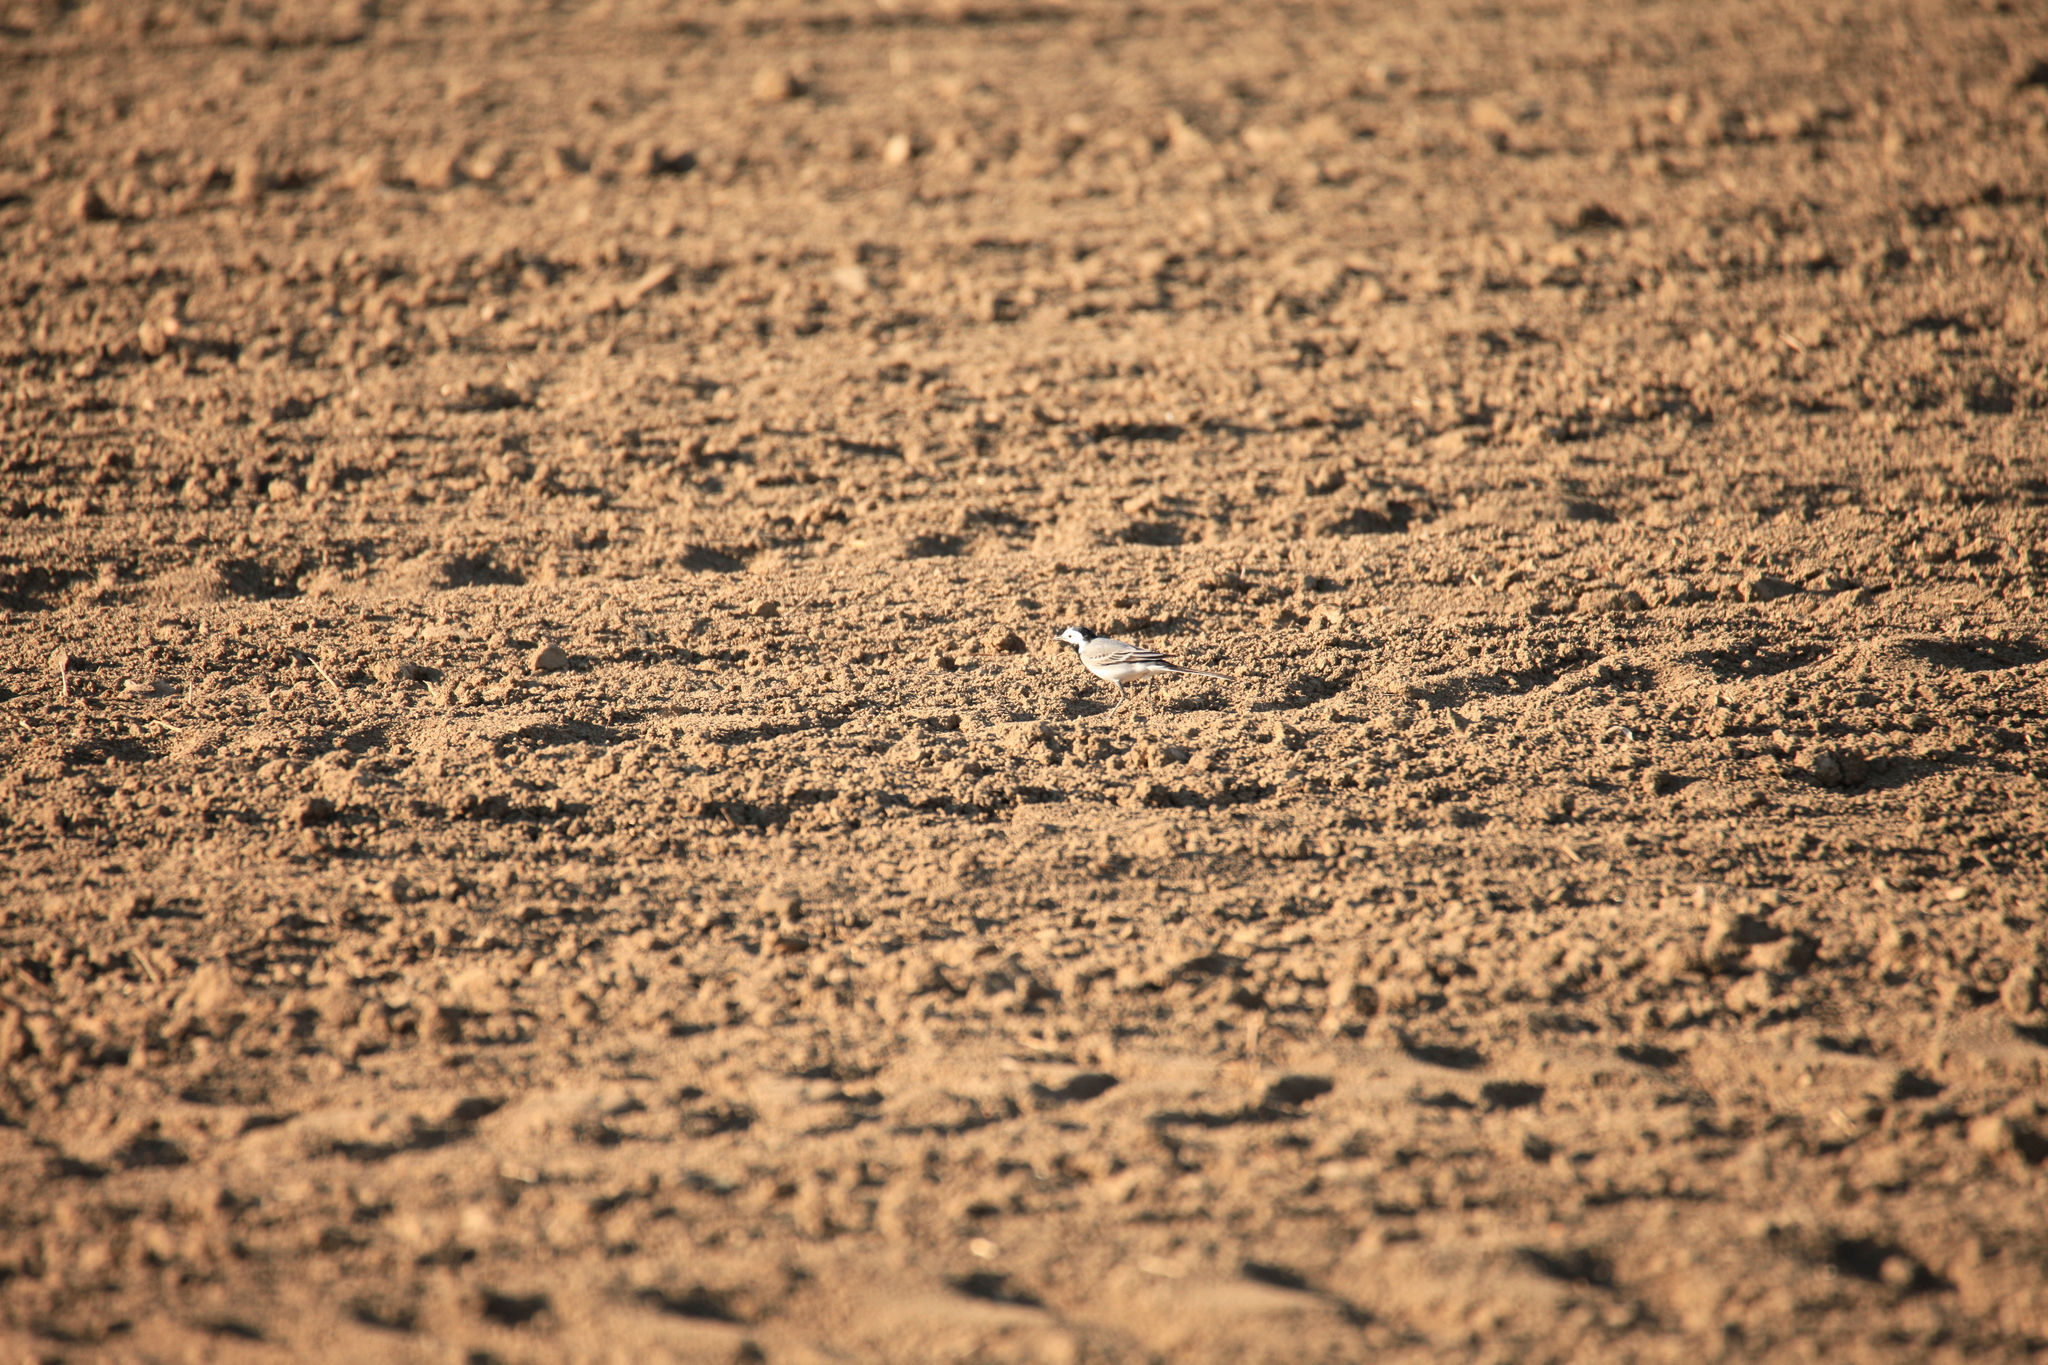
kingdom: Animalia
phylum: Chordata
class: Aves
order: Passeriformes
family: Motacillidae
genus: Motacilla
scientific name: Motacilla alba
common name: White wagtail
